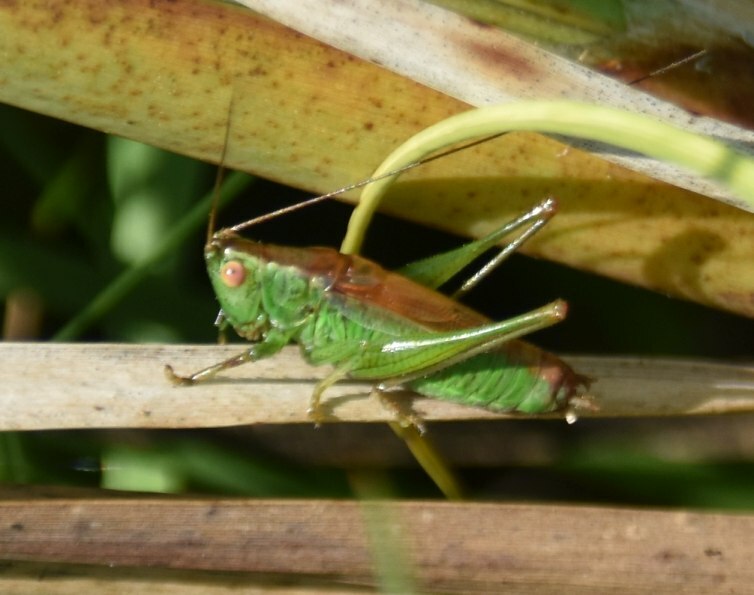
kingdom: Animalia
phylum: Arthropoda
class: Insecta
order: Orthoptera
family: Tettigoniidae
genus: Conocephalus
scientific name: Conocephalus dorsalis
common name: Short-winged conehead
